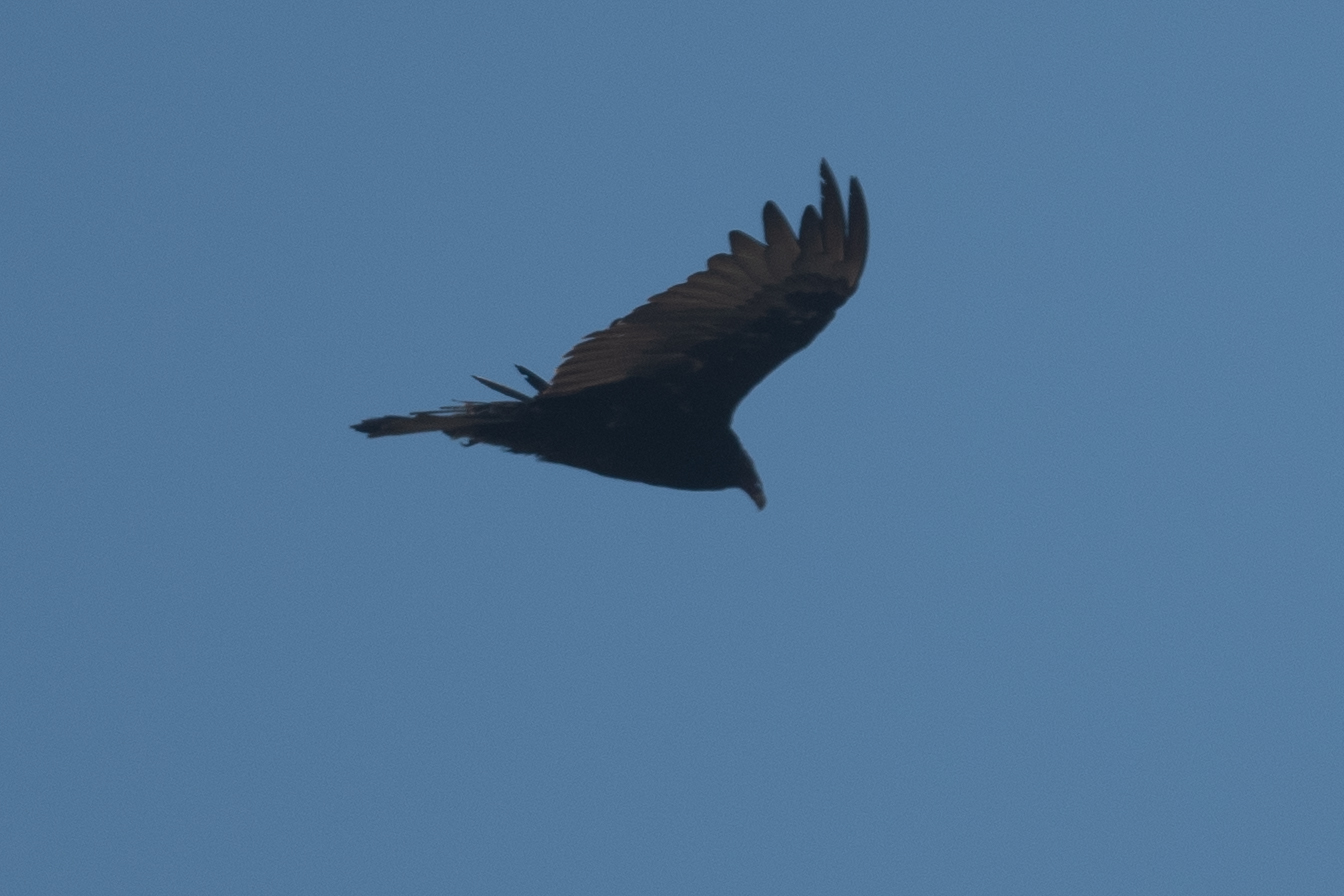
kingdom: Animalia
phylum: Chordata
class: Aves
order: Accipitriformes
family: Cathartidae
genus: Cathartes
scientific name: Cathartes aura
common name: Turkey vulture
